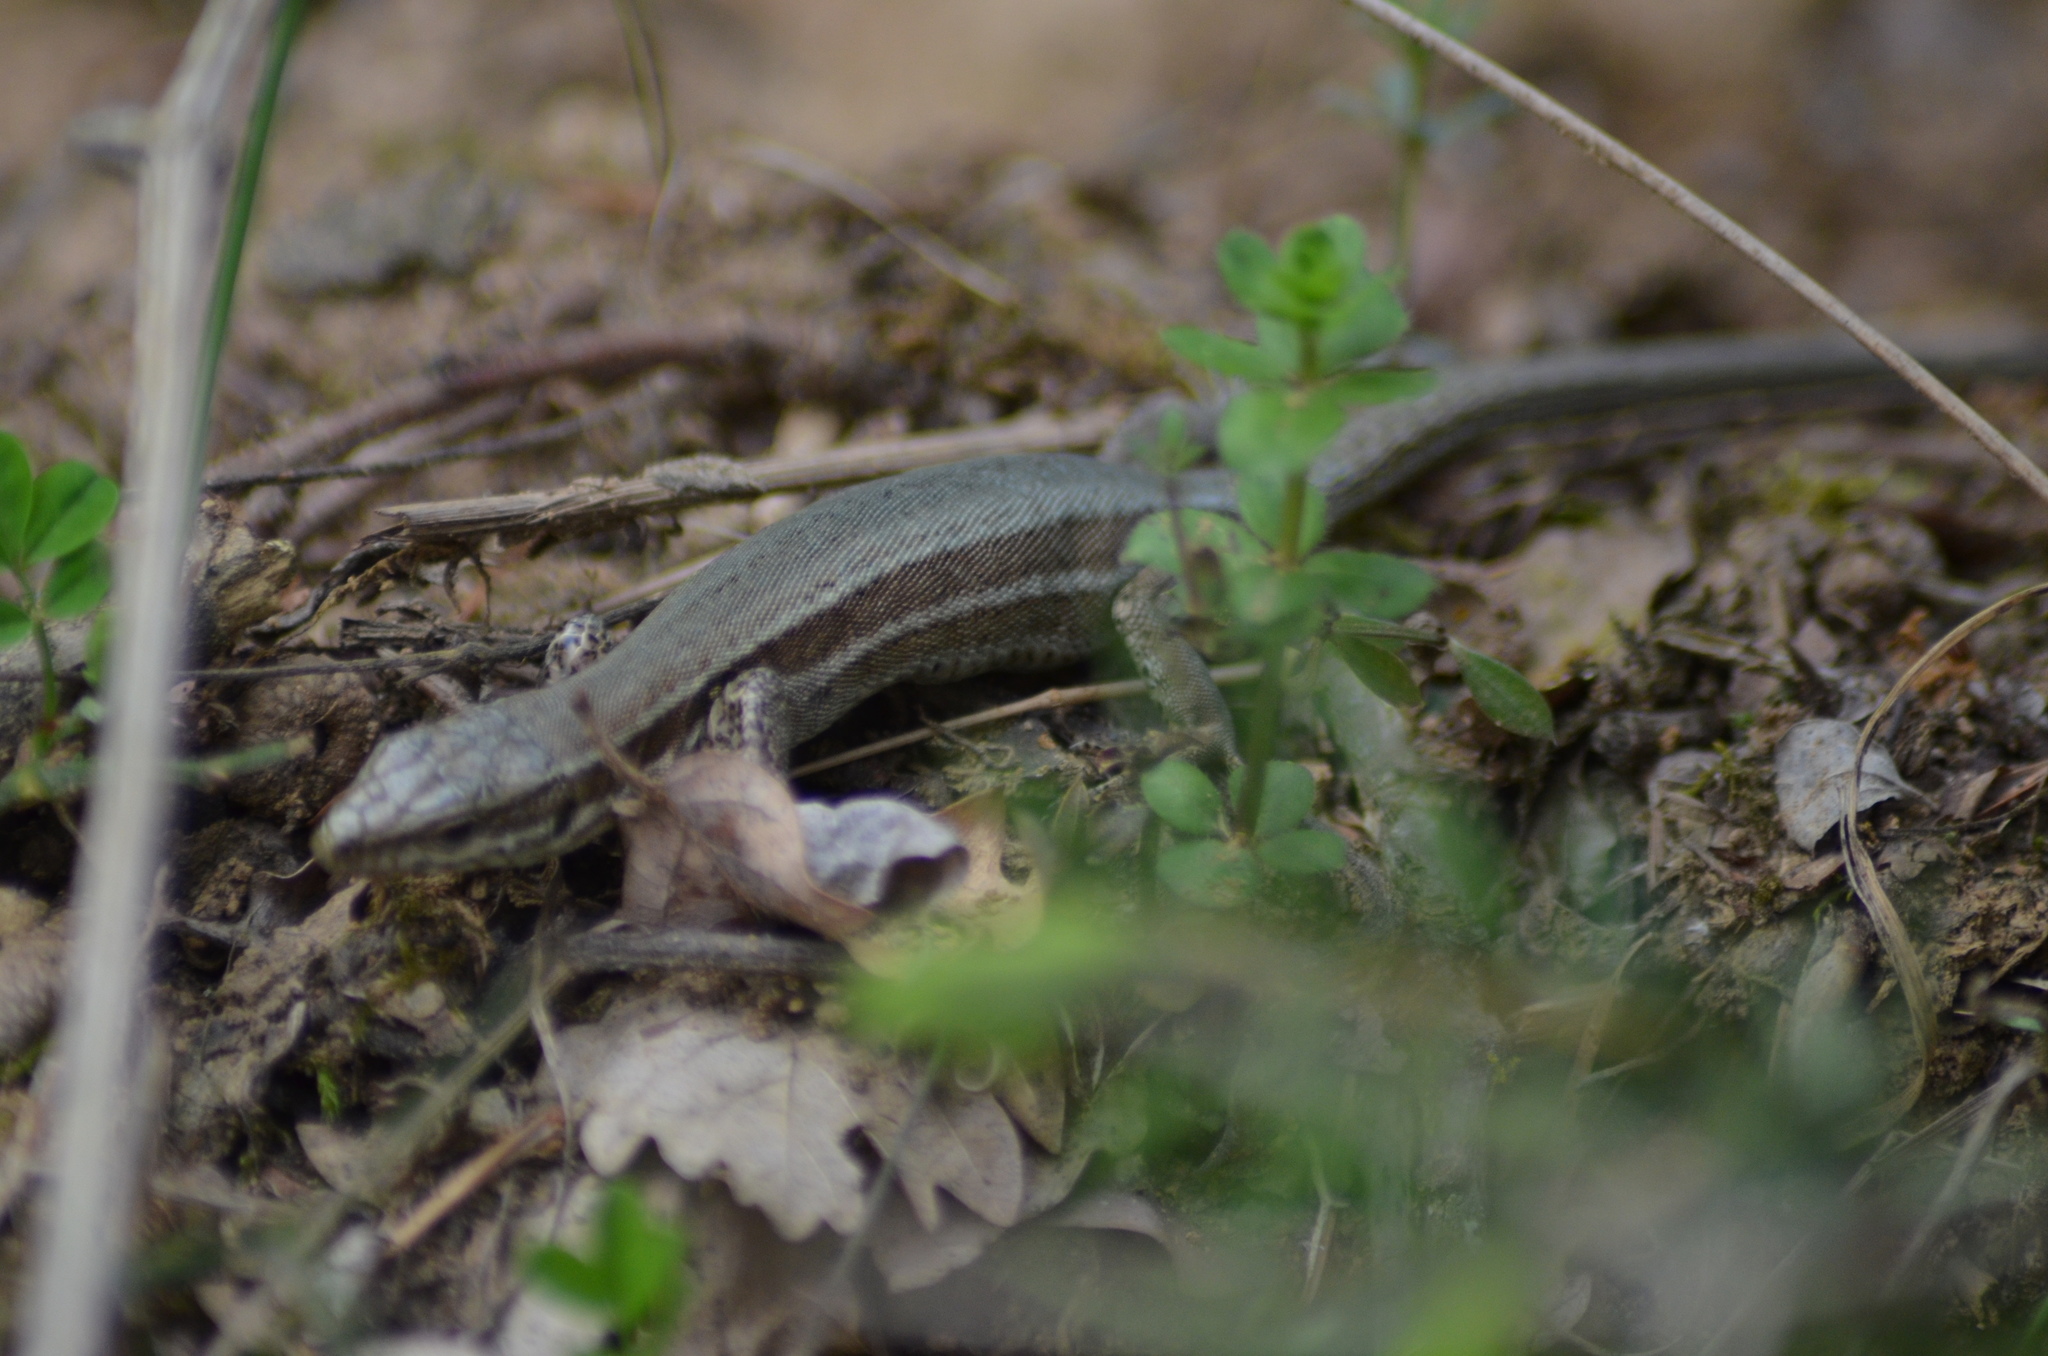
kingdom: Animalia
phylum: Chordata
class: Squamata
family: Lacertidae
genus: Podarcis
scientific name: Podarcis muralis
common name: Common wall lizard
